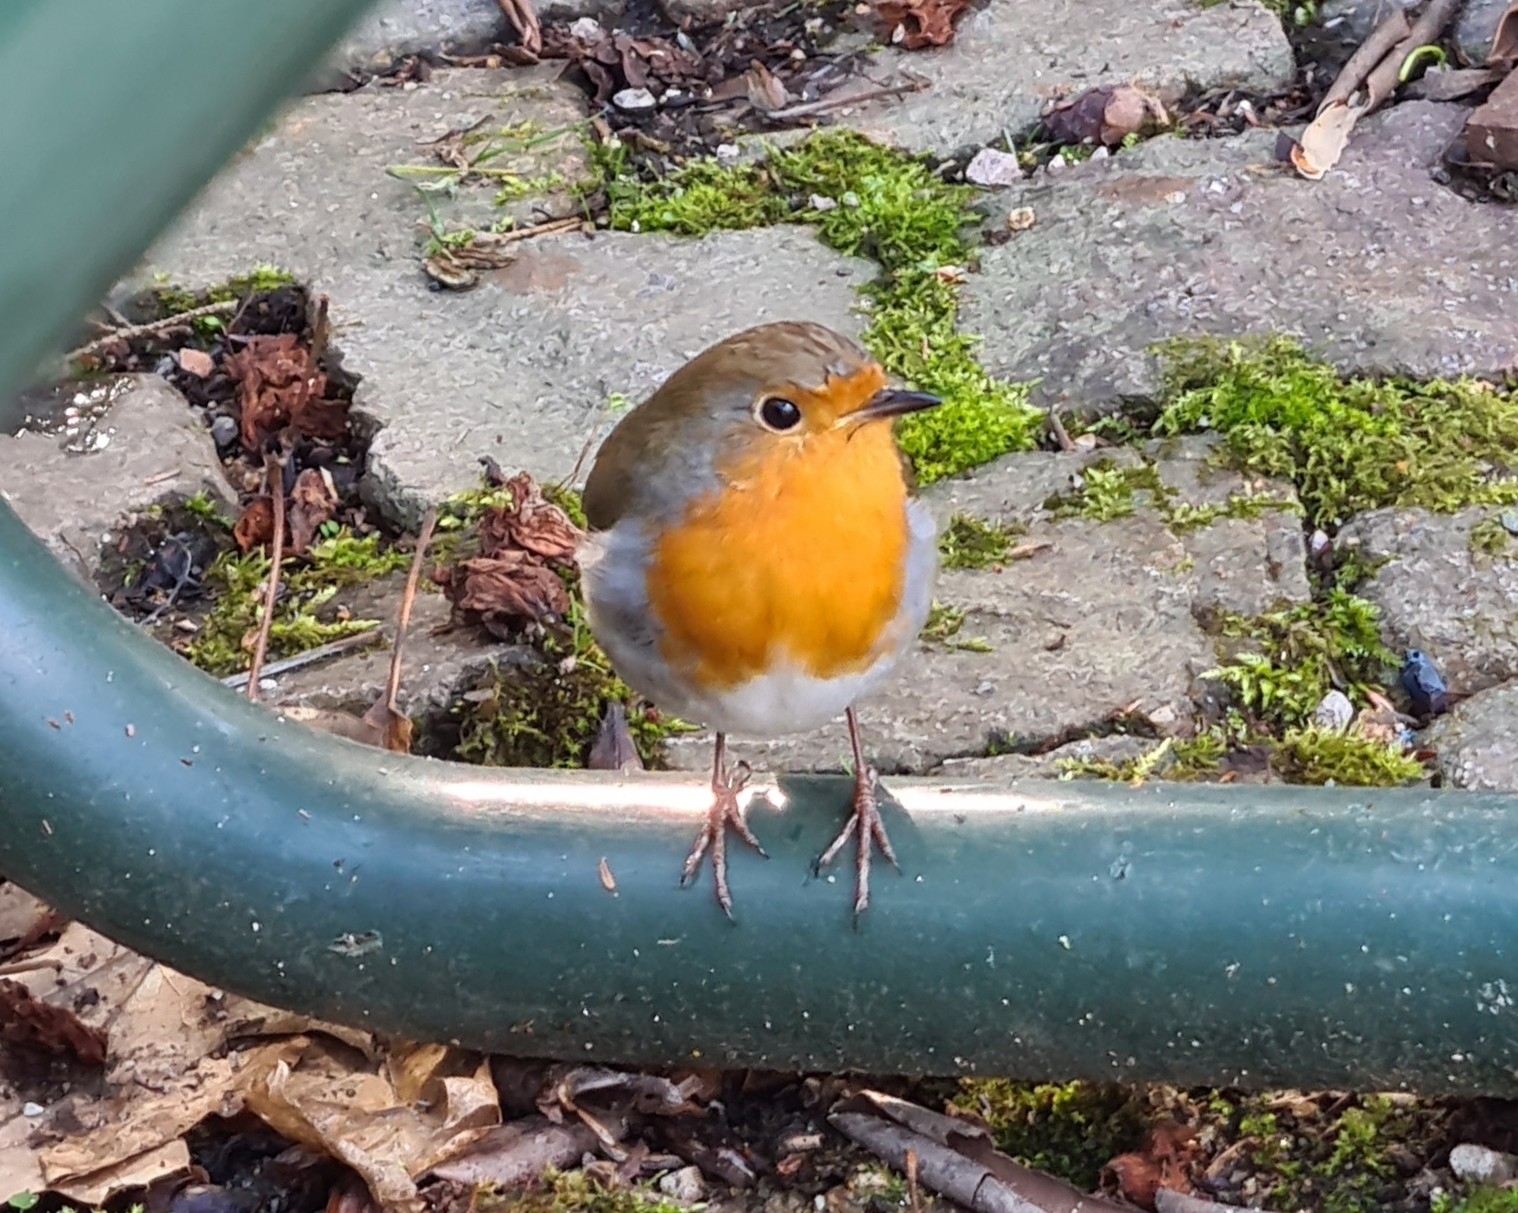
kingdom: Animalia
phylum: Chordata
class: Aves
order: Passeriformes
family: Muscicapidae
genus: Erithacus
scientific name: Erithacus rubecula
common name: European robin
